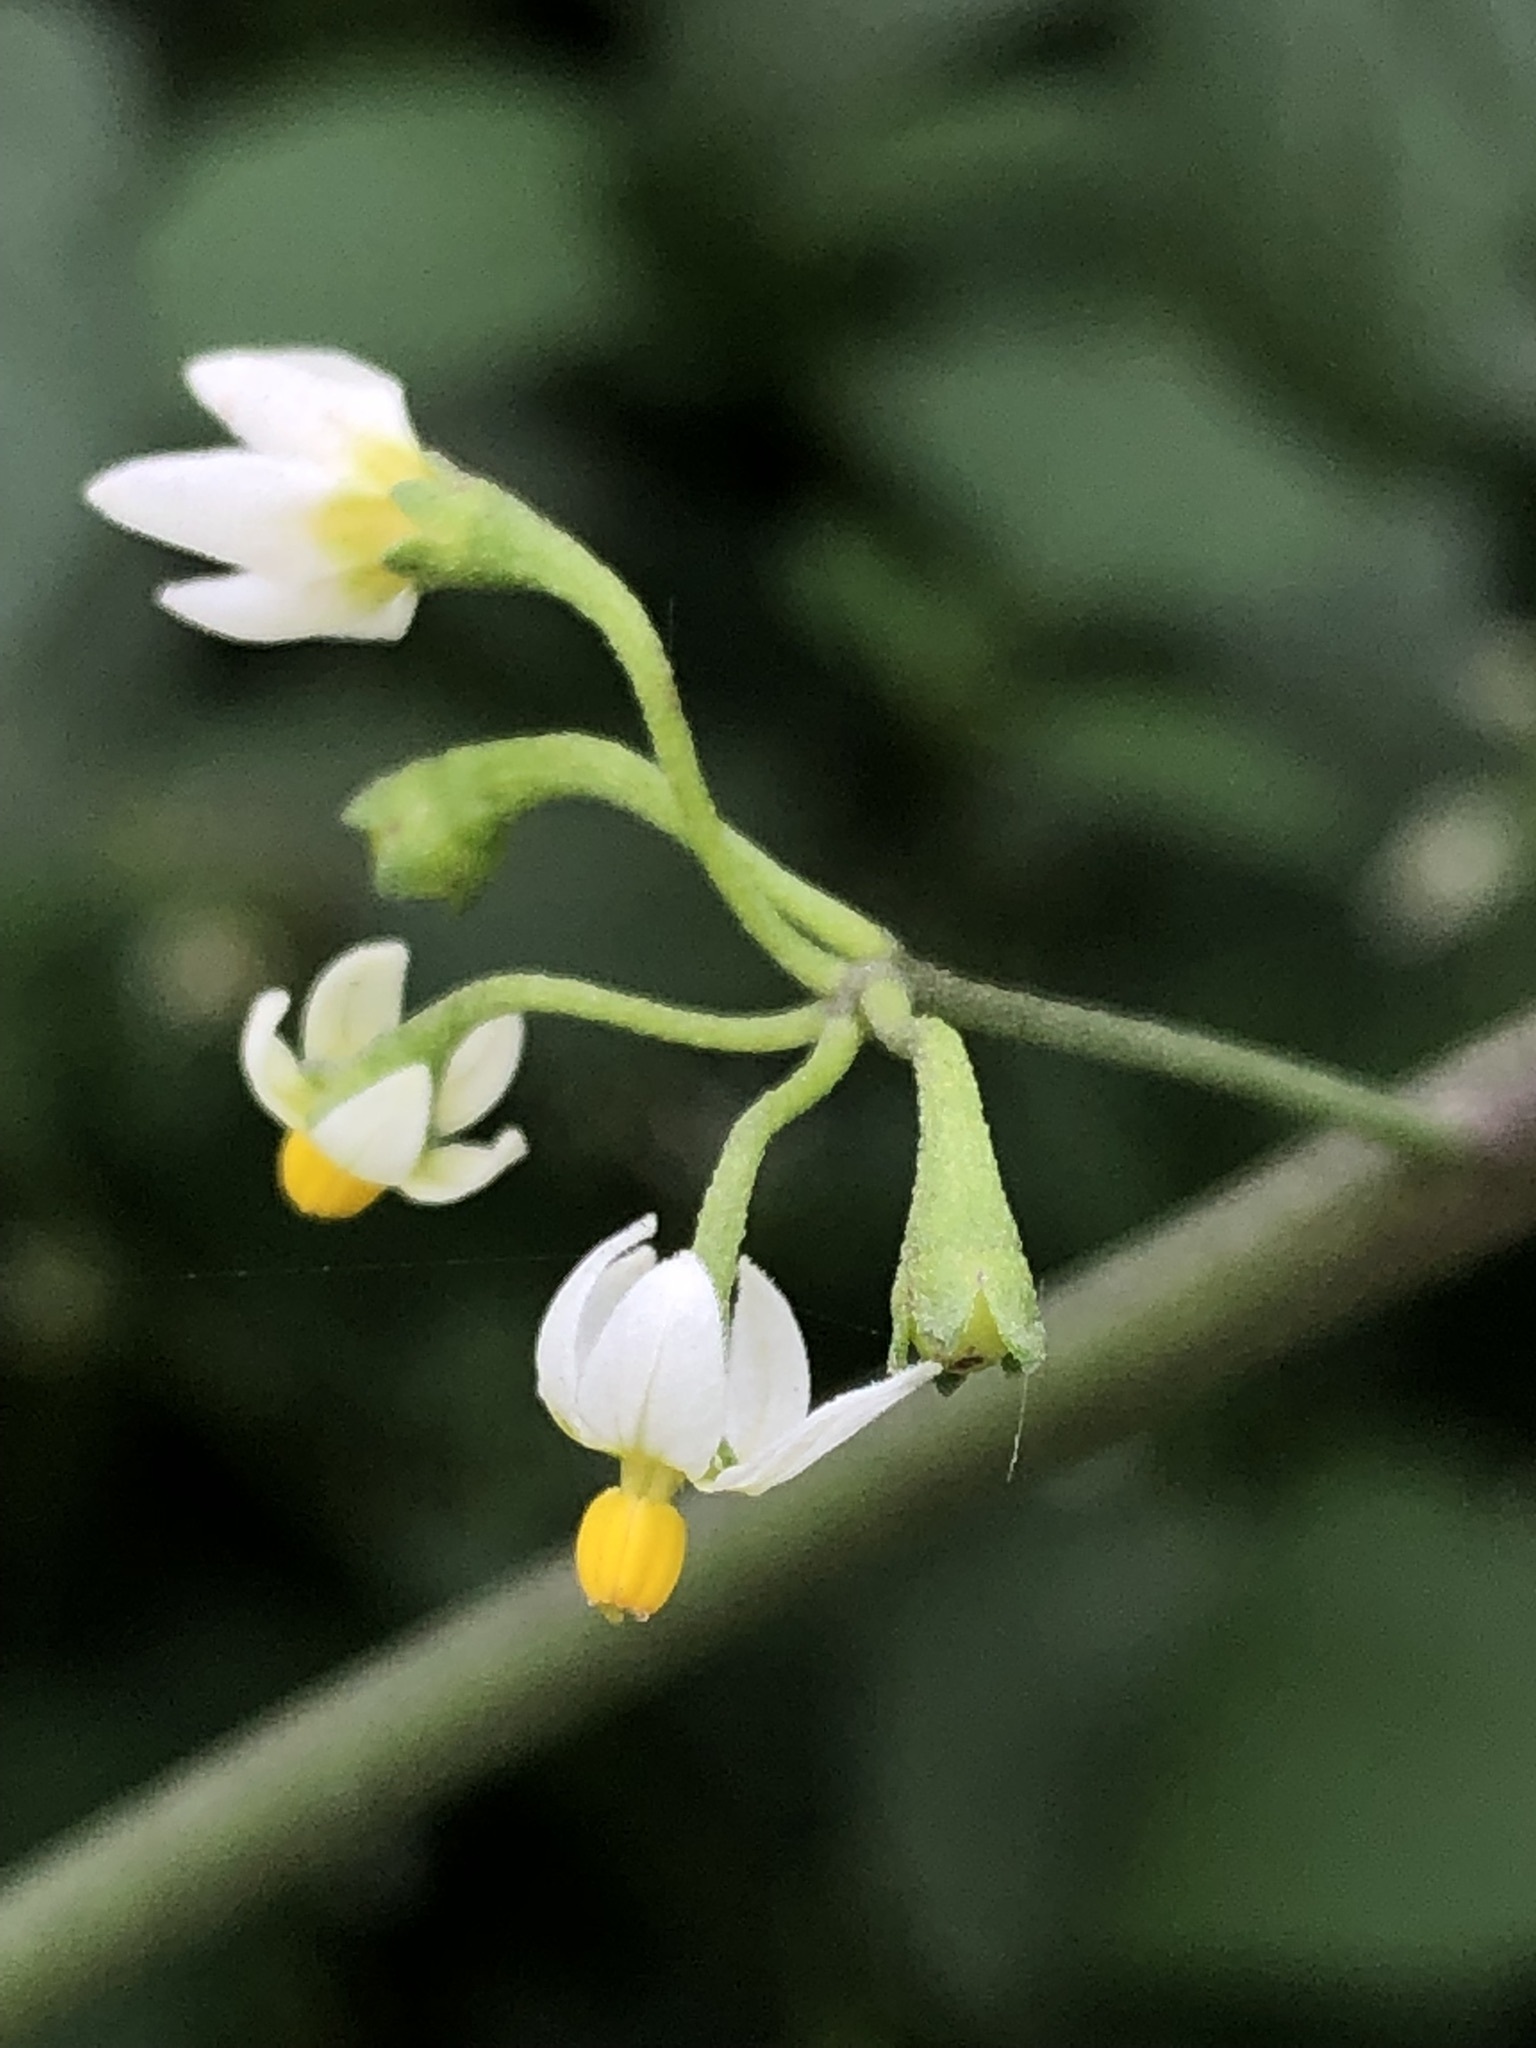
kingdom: Plantae
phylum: Tracheophyta
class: Magnoliopsida
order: Solanales
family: Solanaceae
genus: Solanum
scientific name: Solanum americanum
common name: American black nightshade
